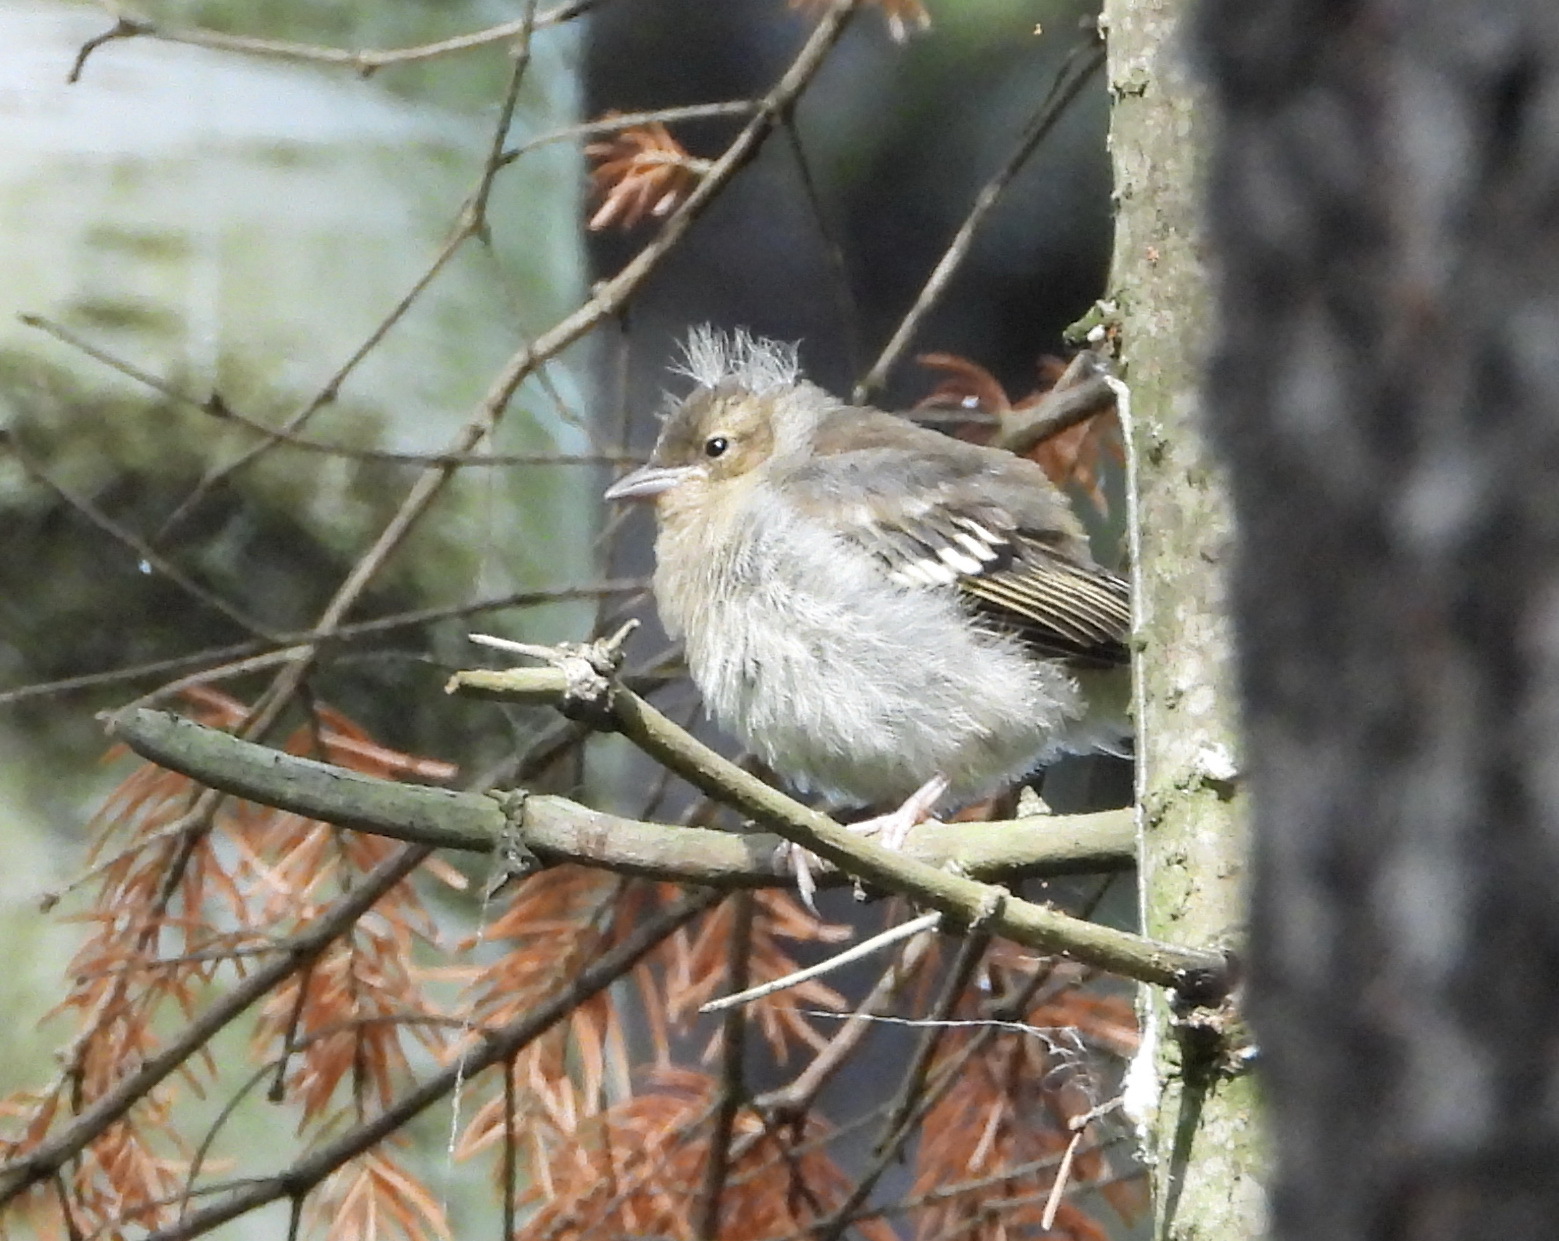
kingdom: Animalia
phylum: Chordata
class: Aves
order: Passeriformes
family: Fringillidae
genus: Fringilla
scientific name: Fringilla coelebs
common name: Common chaffinch
